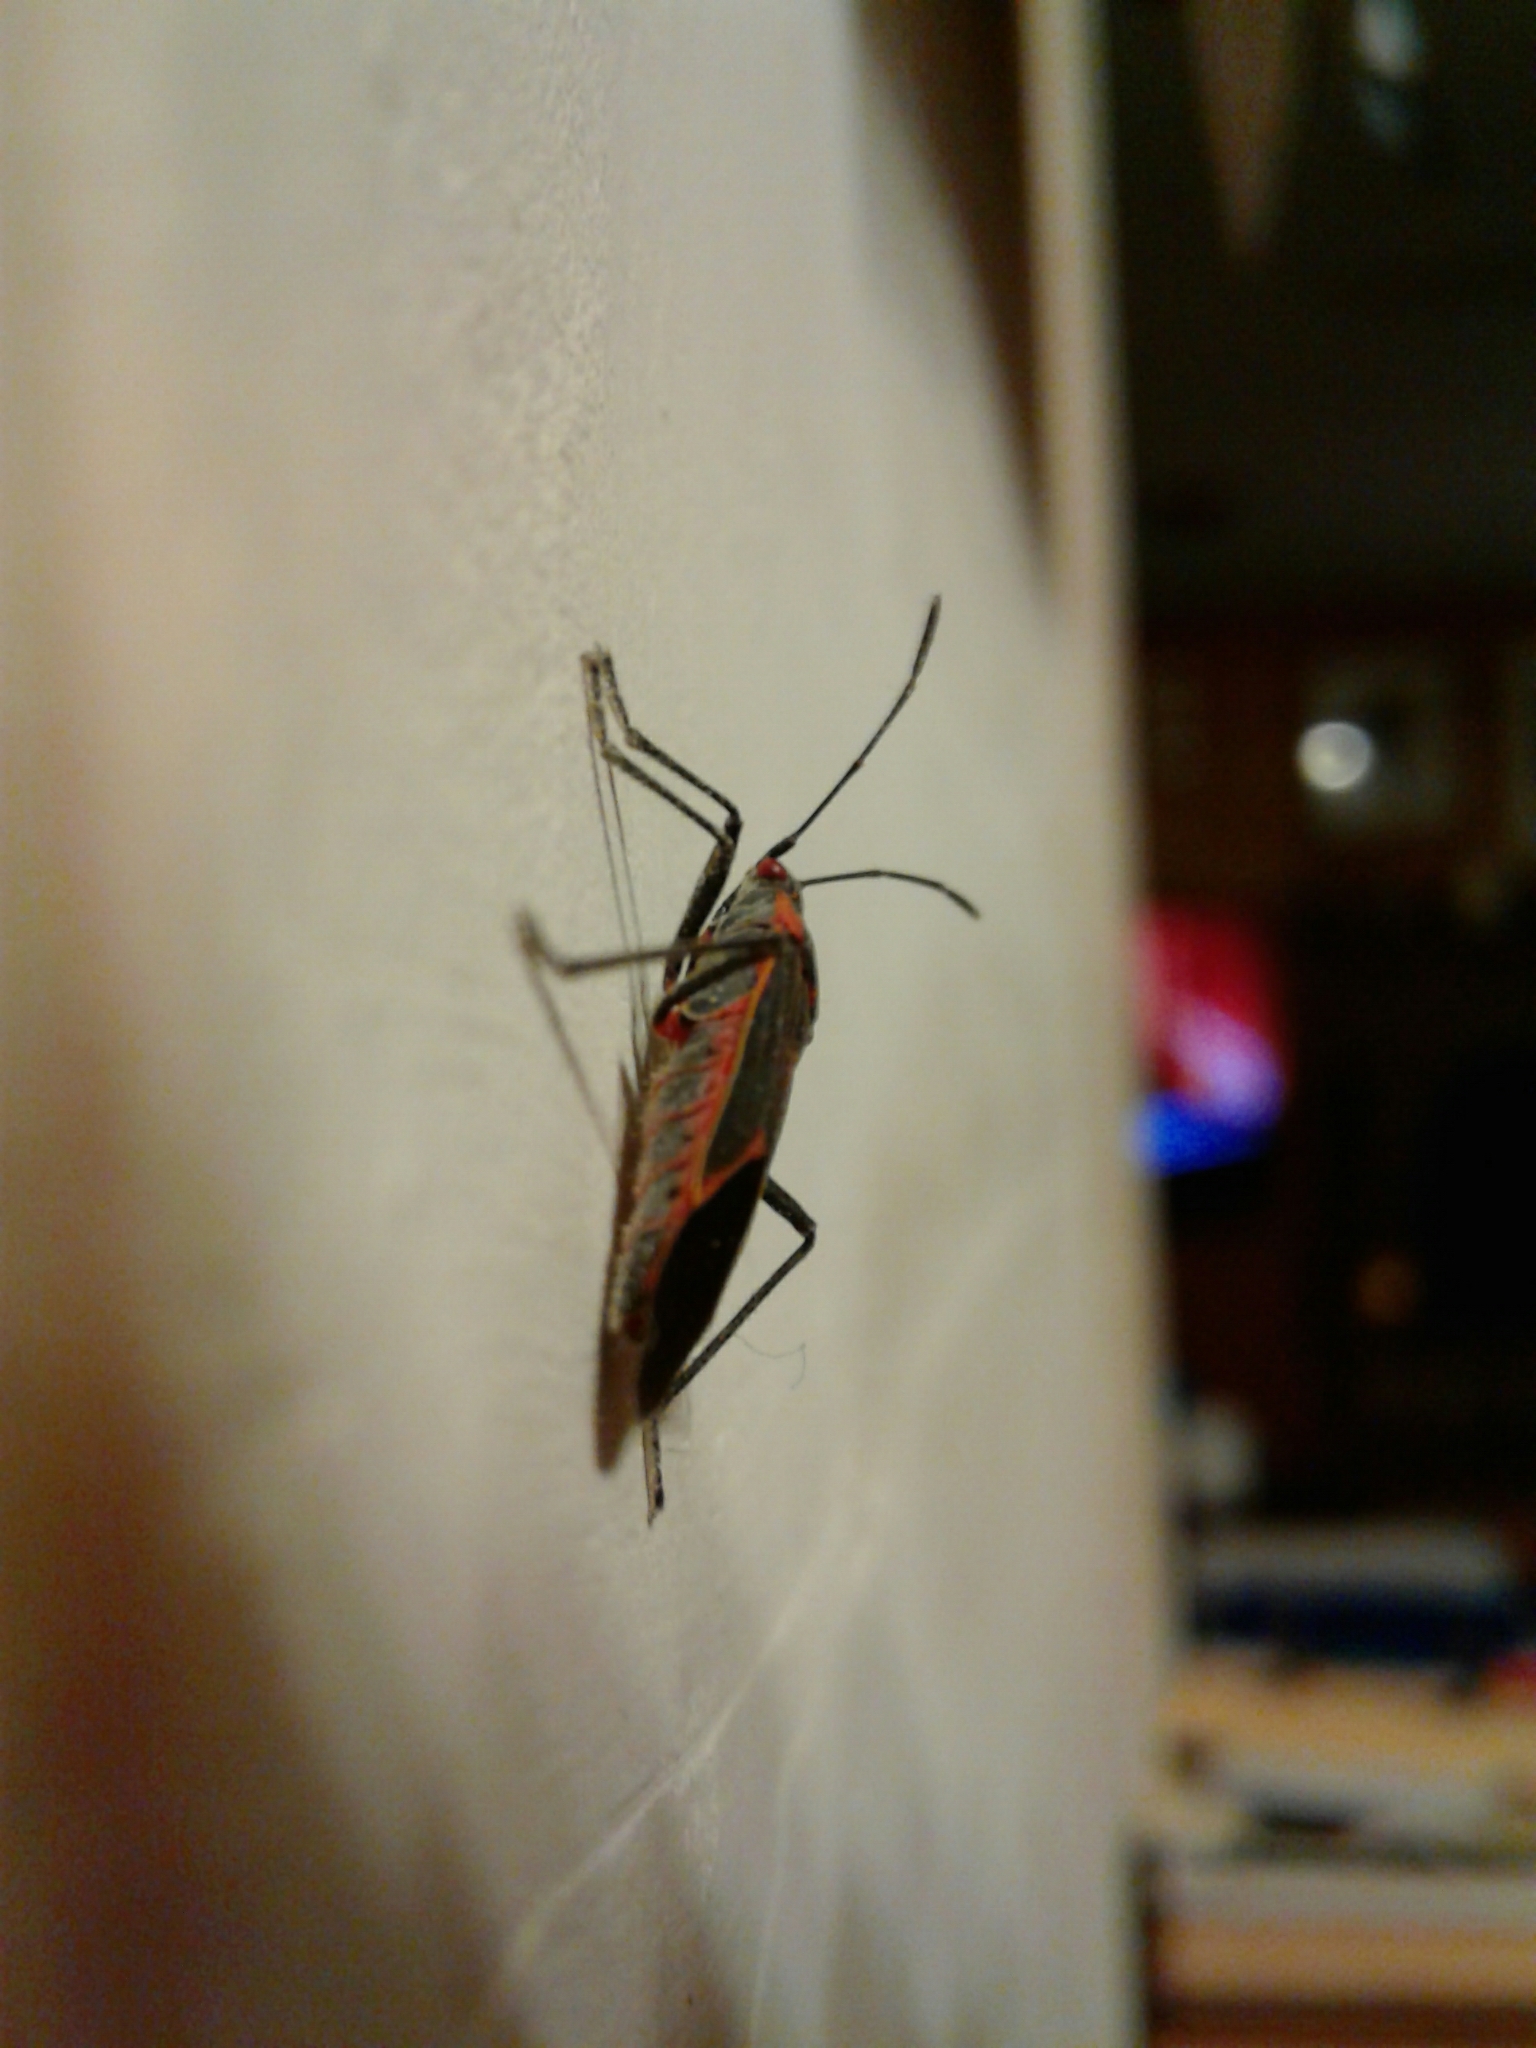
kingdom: Animalia
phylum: Arthropoda
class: Insecta
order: Hemiptera
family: Rhopalidae
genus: Boisea
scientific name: Boisea trivittata
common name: Boxelder bug
